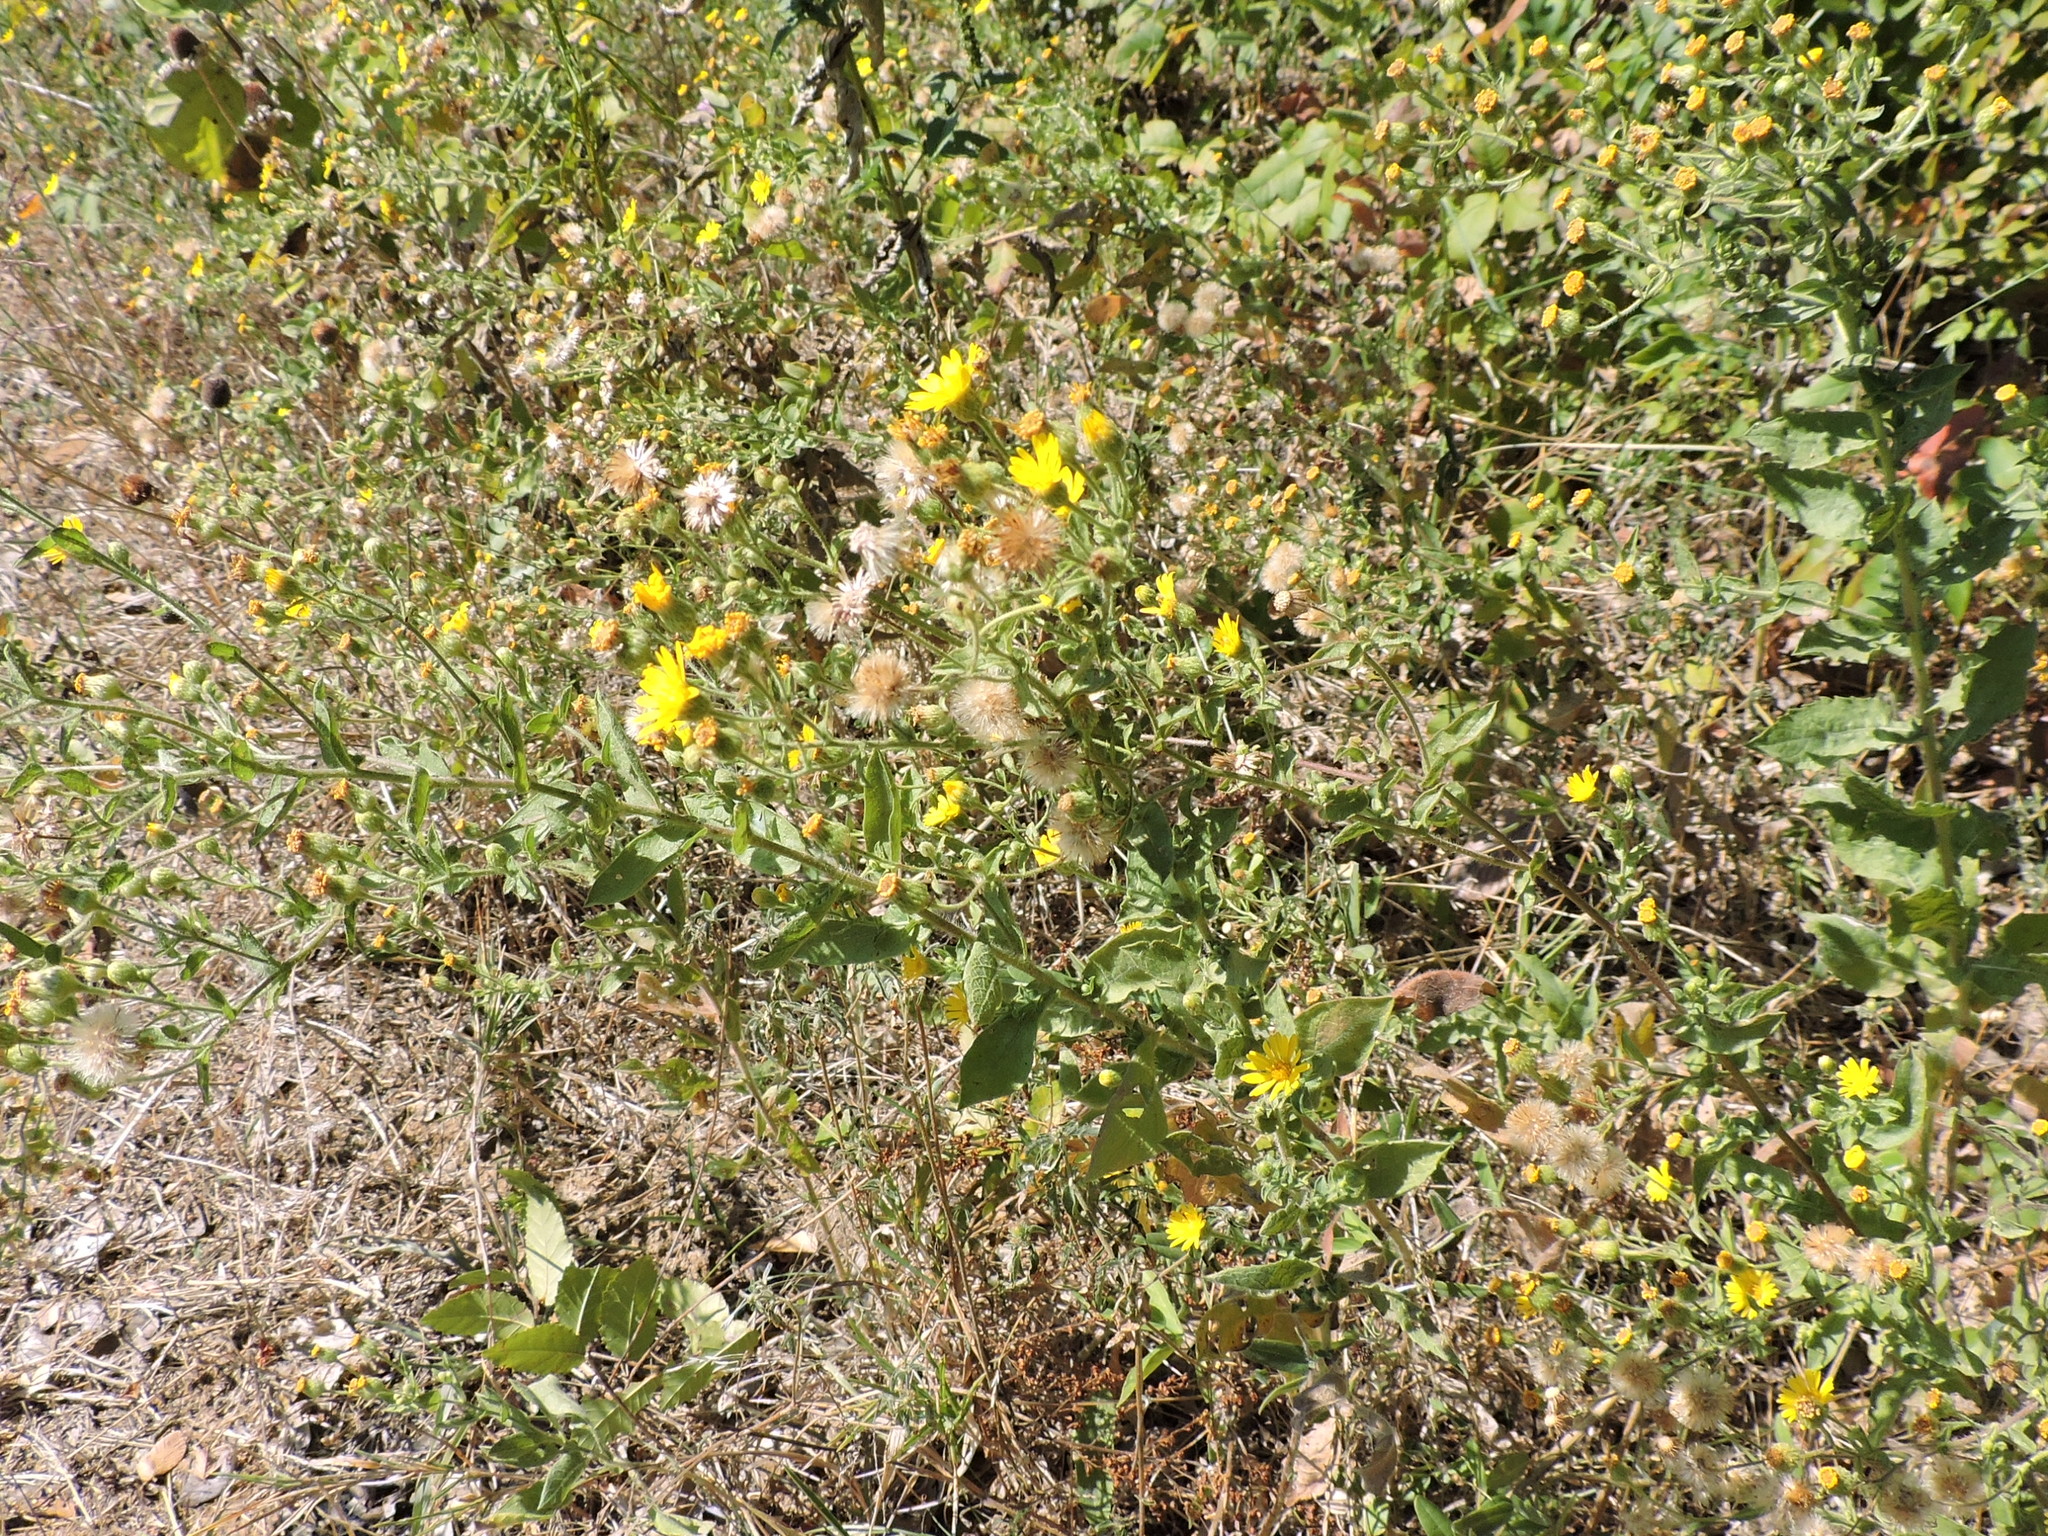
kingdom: Plantae
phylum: Tracheophyta
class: Magnoliopsida
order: Asterales
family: Asteraceae
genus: Heterotheca
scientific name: Heterotheca subaxillaris
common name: Camphorweed
